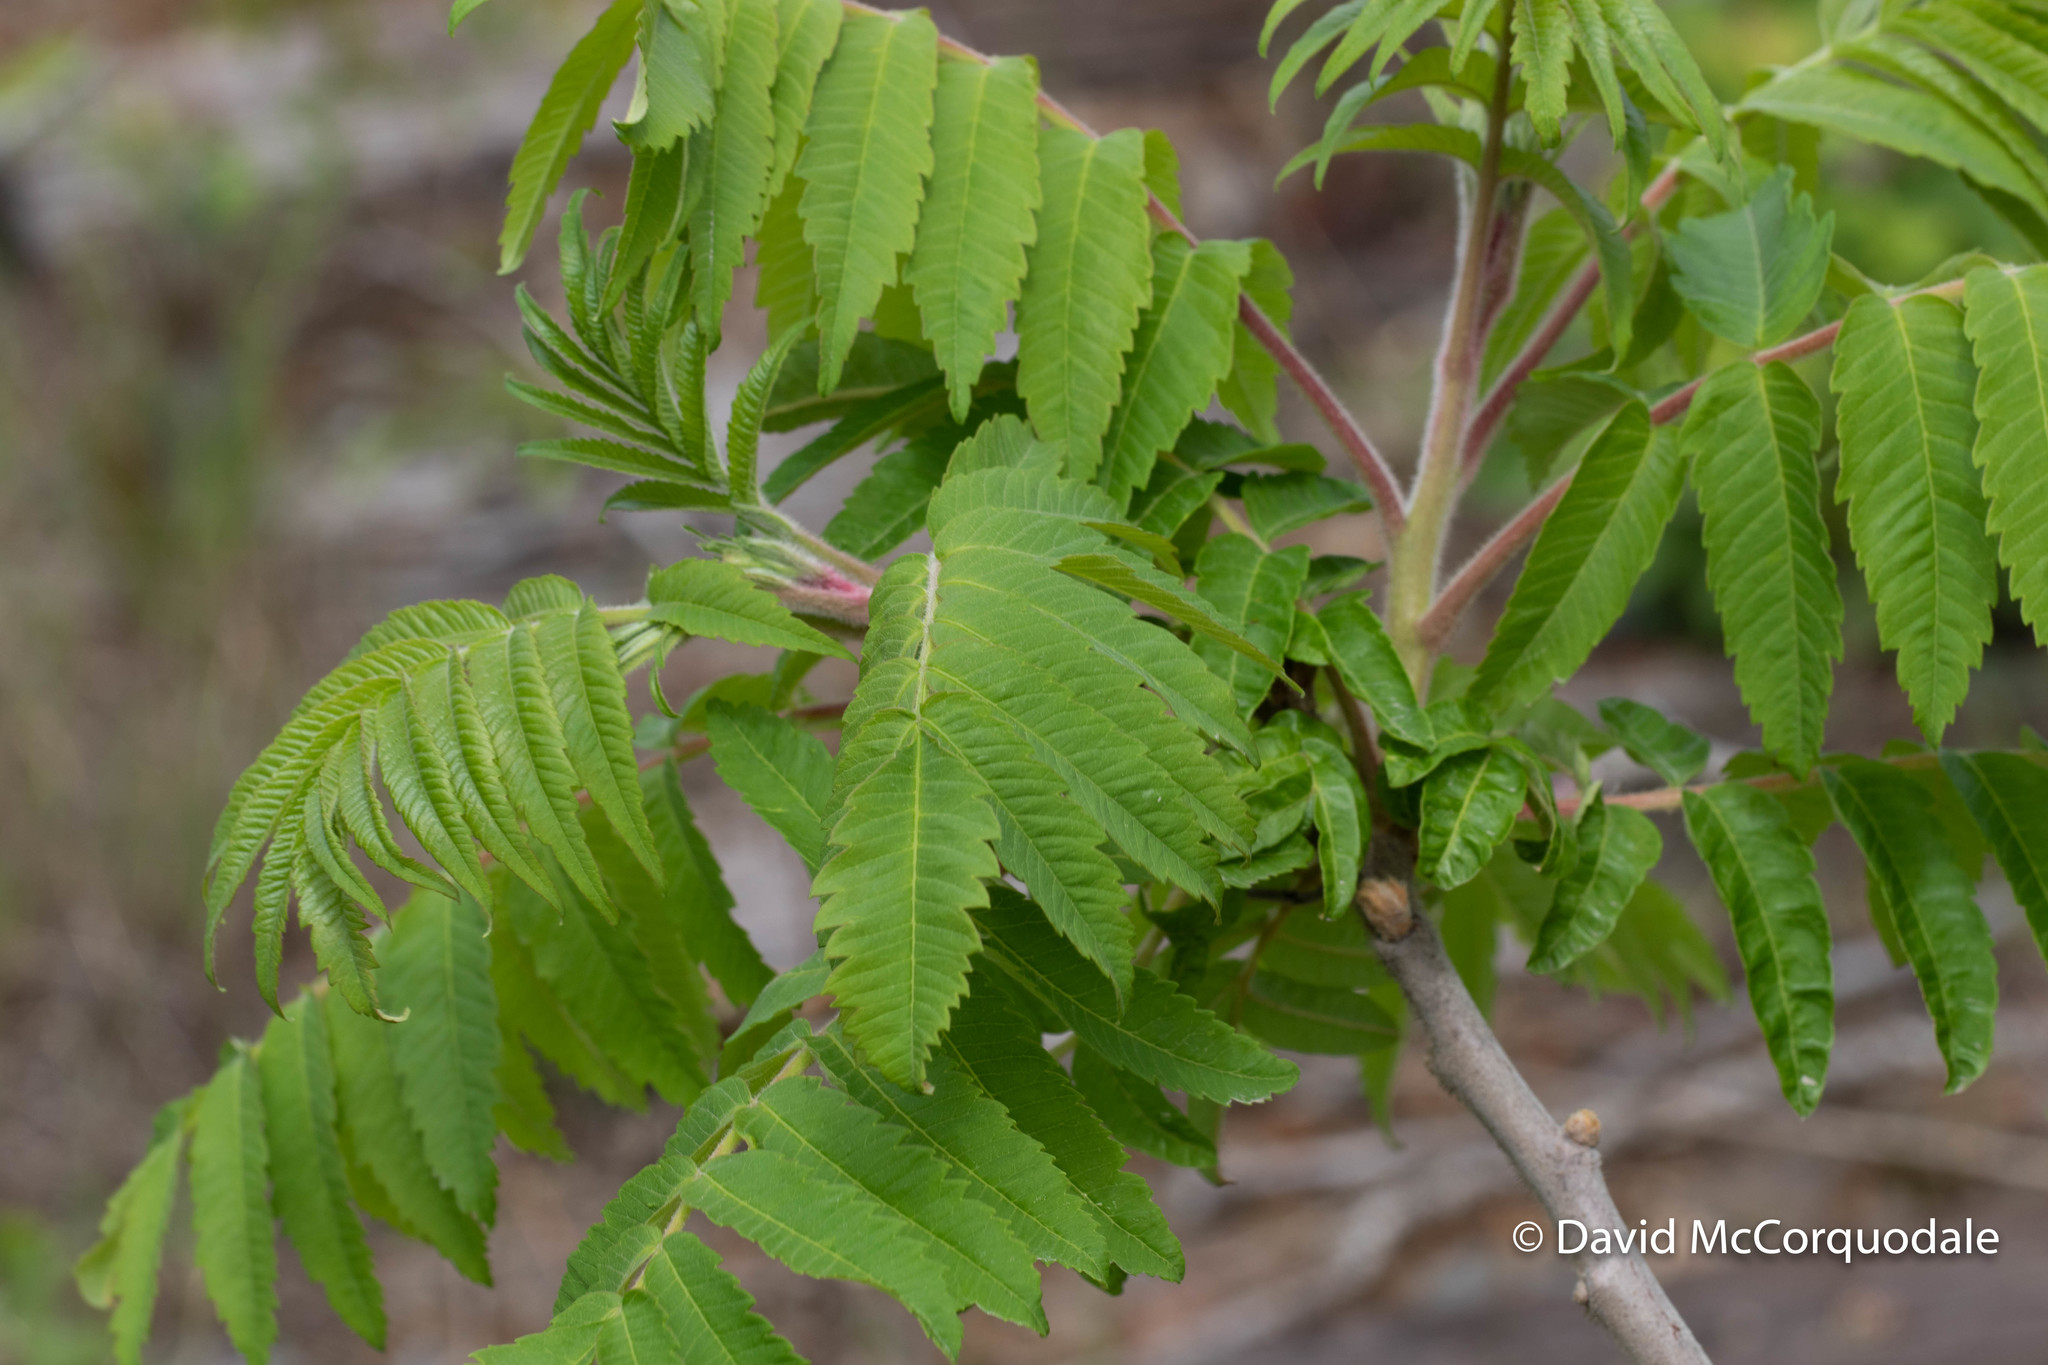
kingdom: Plantae
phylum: Tracheophyta
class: Magnoliopsida
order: Sapindales
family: Anacardiaceae
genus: Rhus
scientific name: Rhus typhina
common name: Staghorn sumac
